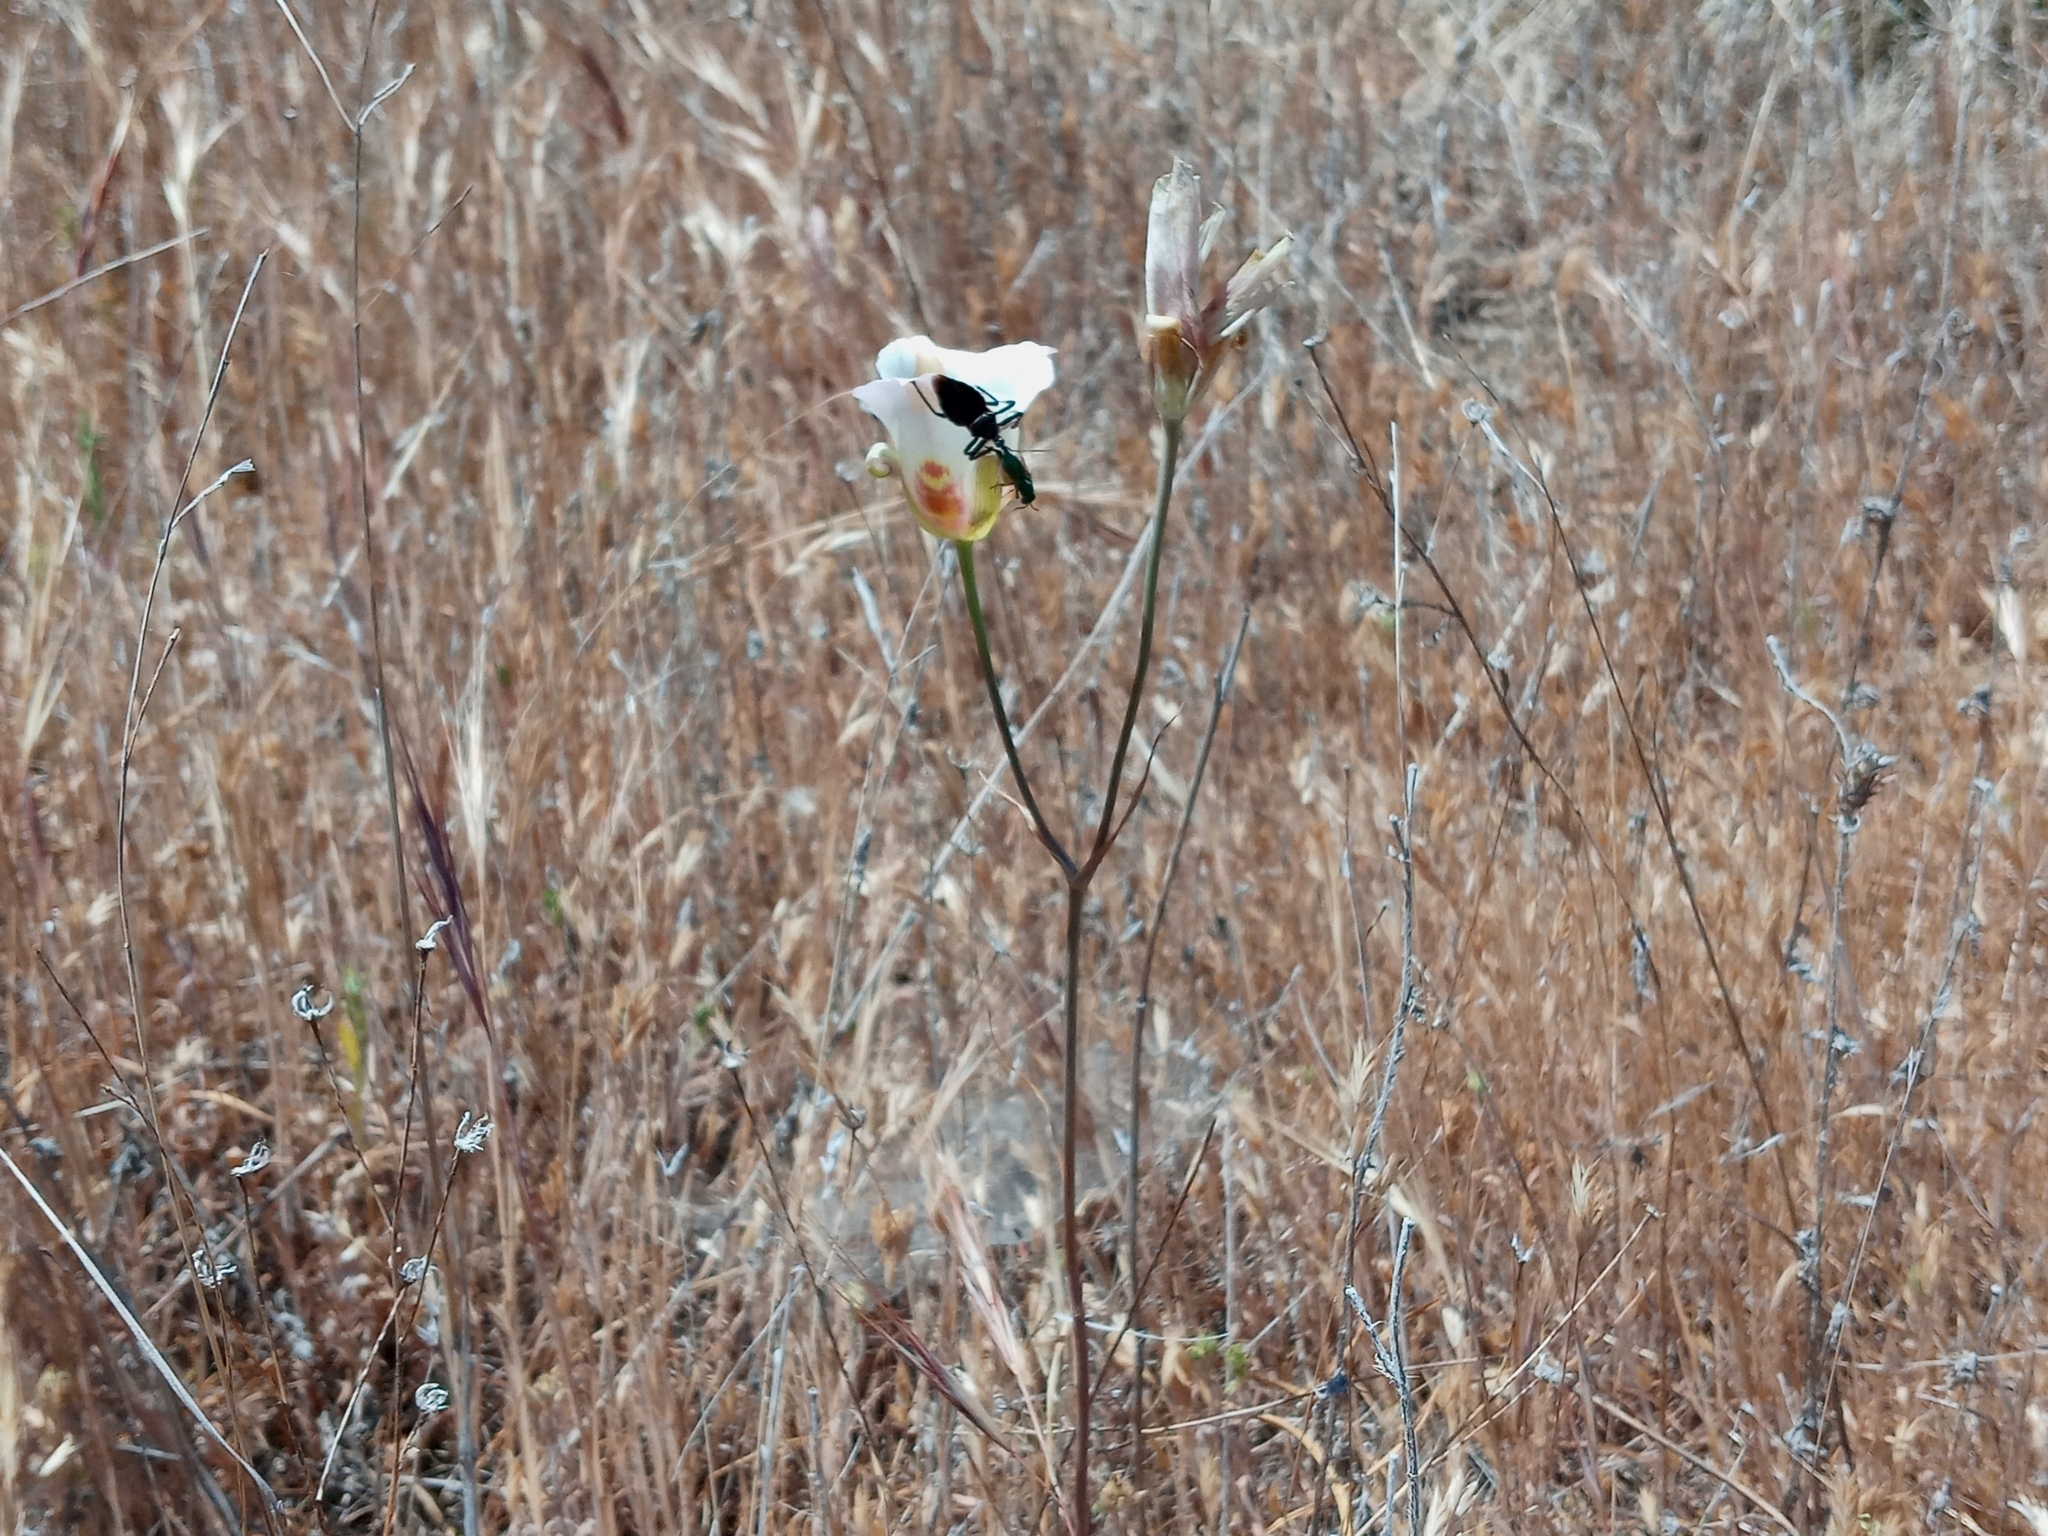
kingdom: Plantae
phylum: Tracheophyta
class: Liliopsida
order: Liliales
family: Liliaceae
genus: Calochortus
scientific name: Calochortus venustus
